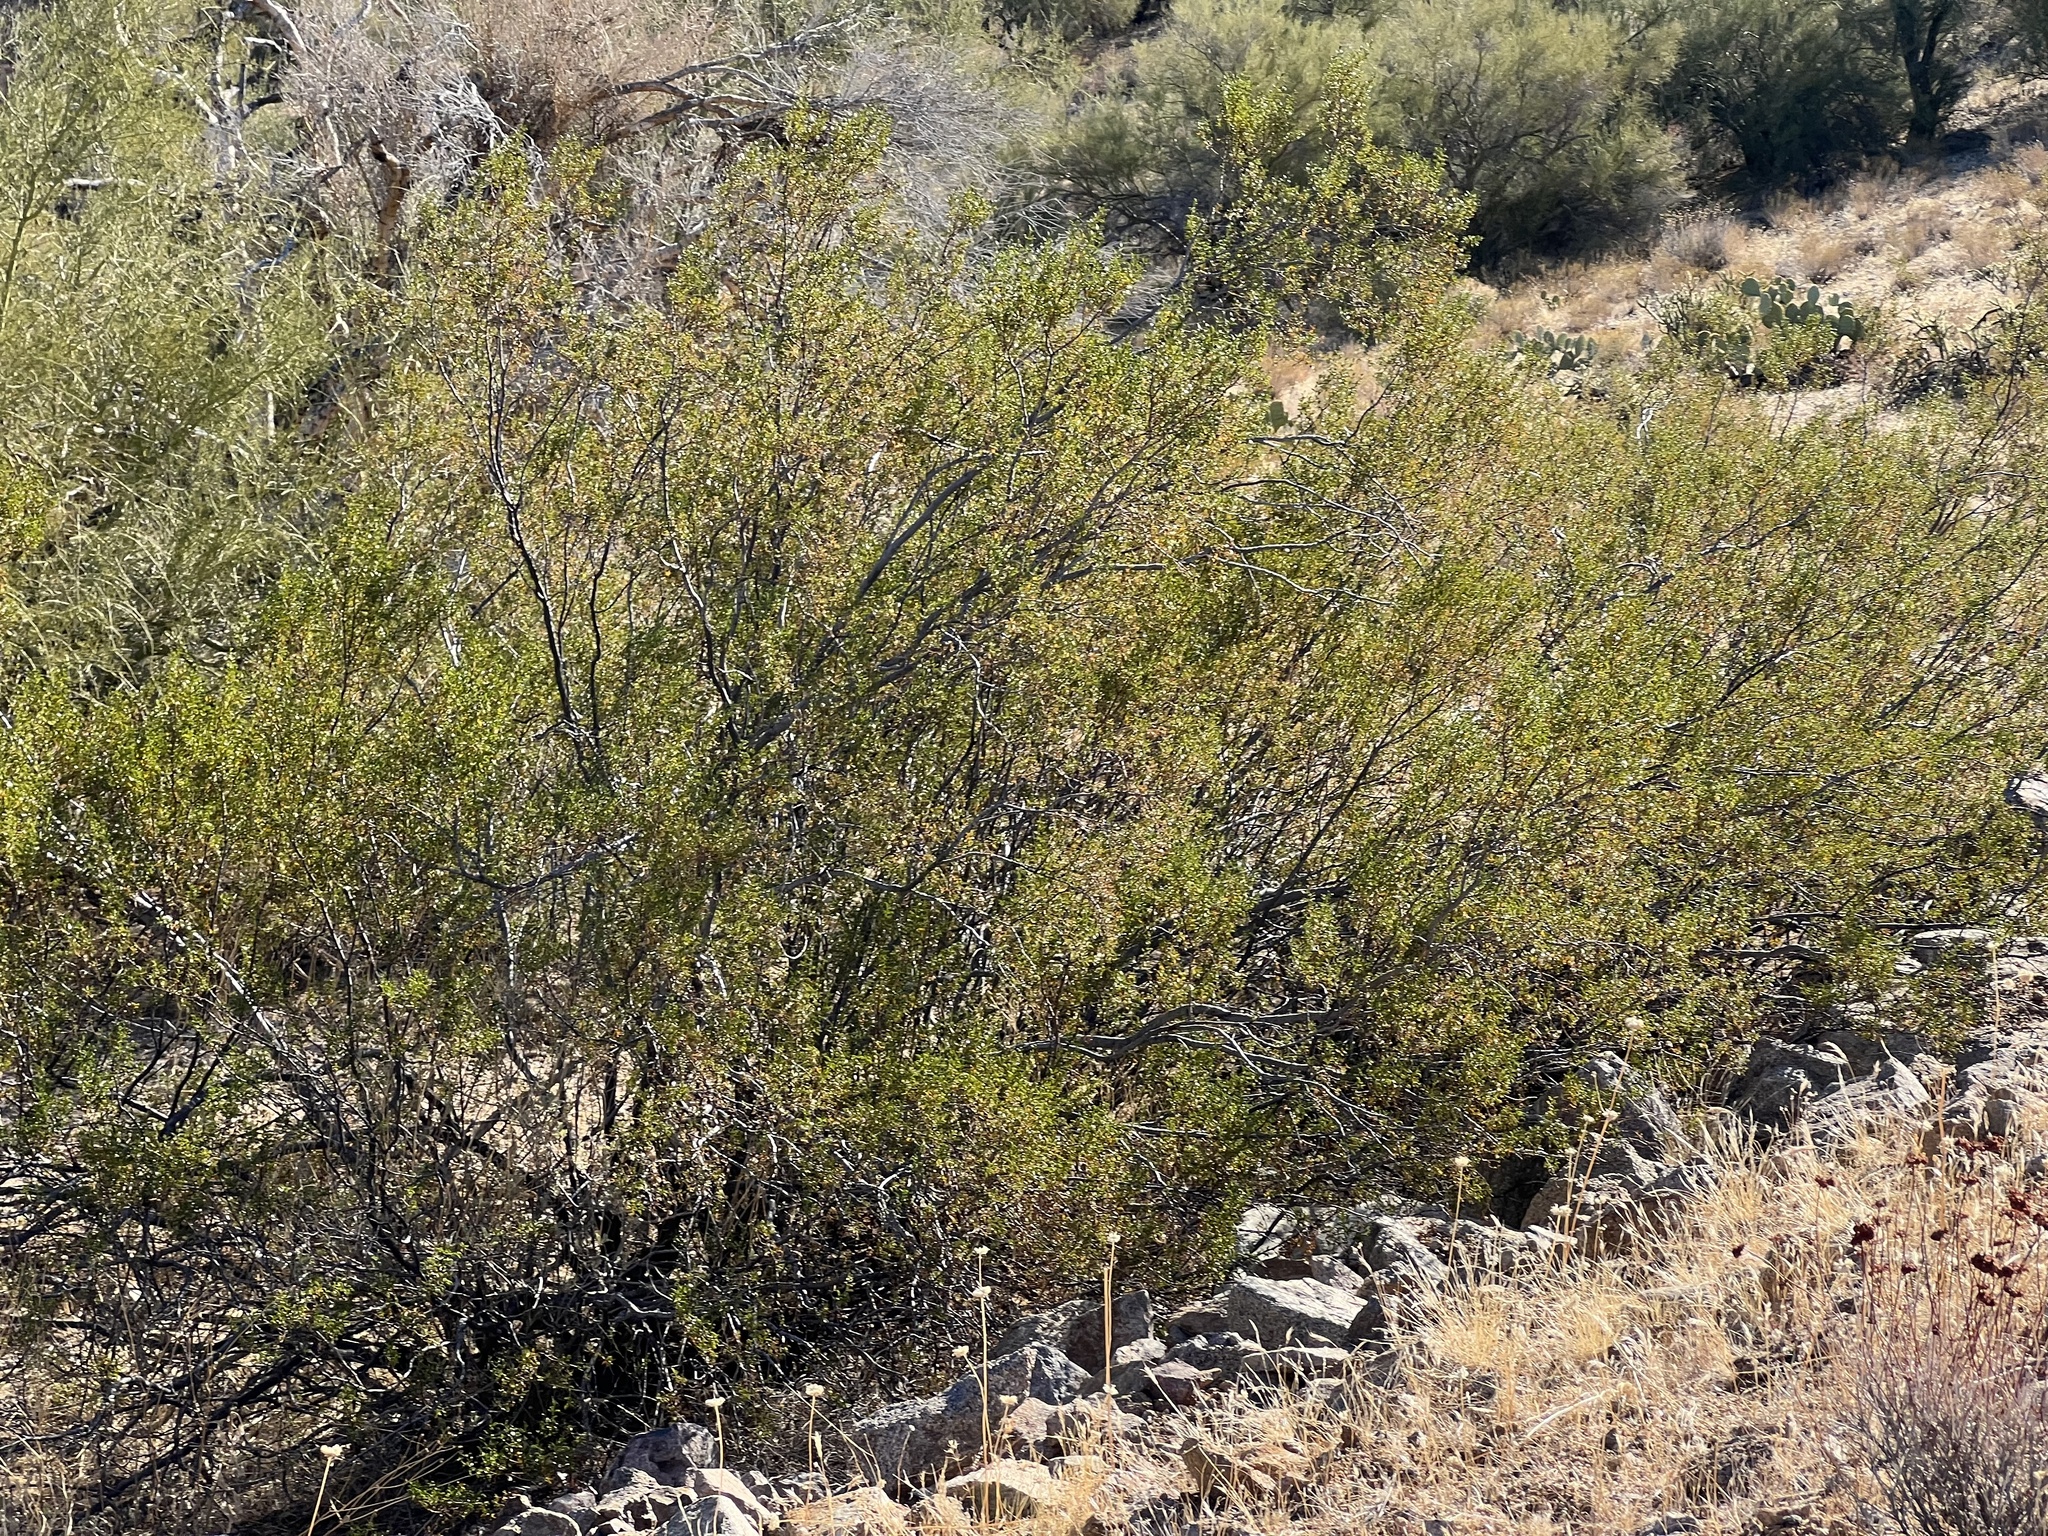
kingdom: Plantae
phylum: Tracheophyta
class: Magnoliopsida
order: Zygophyllales
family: Zygophyllaceae
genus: Larrea
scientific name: Larrea tridentata
